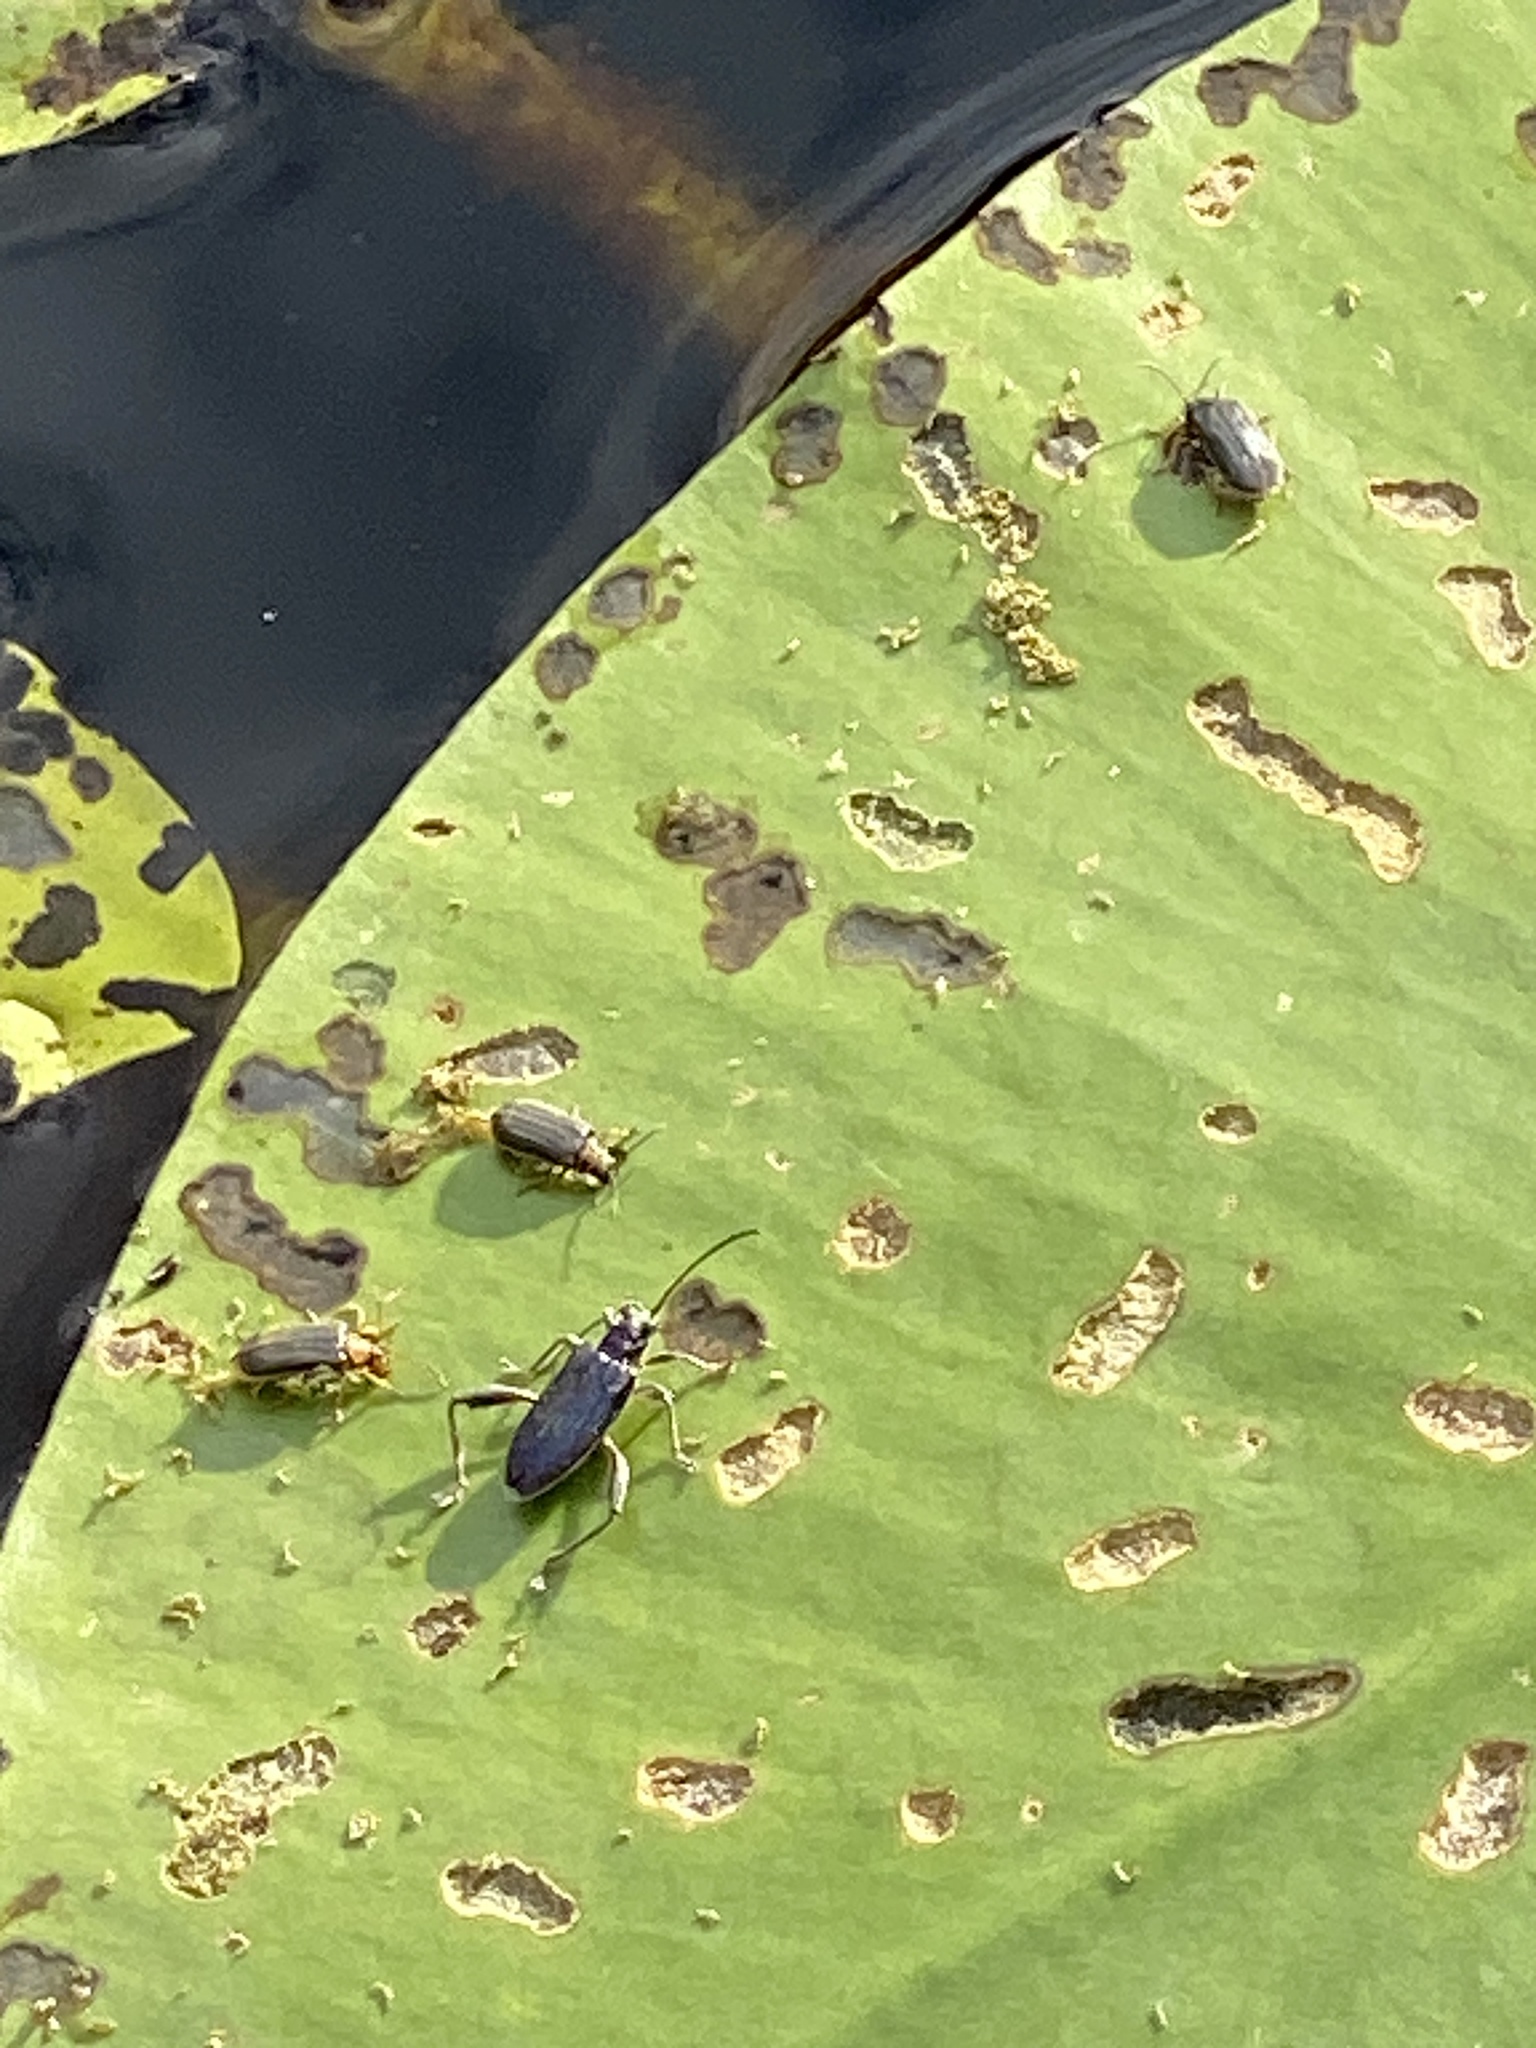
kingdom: Animalia
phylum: Arthropoda
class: Insecta
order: Coleoptera
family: Chrysomelidae
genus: Donacia
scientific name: Donacia crassipes
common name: Water-lily reed beetle
